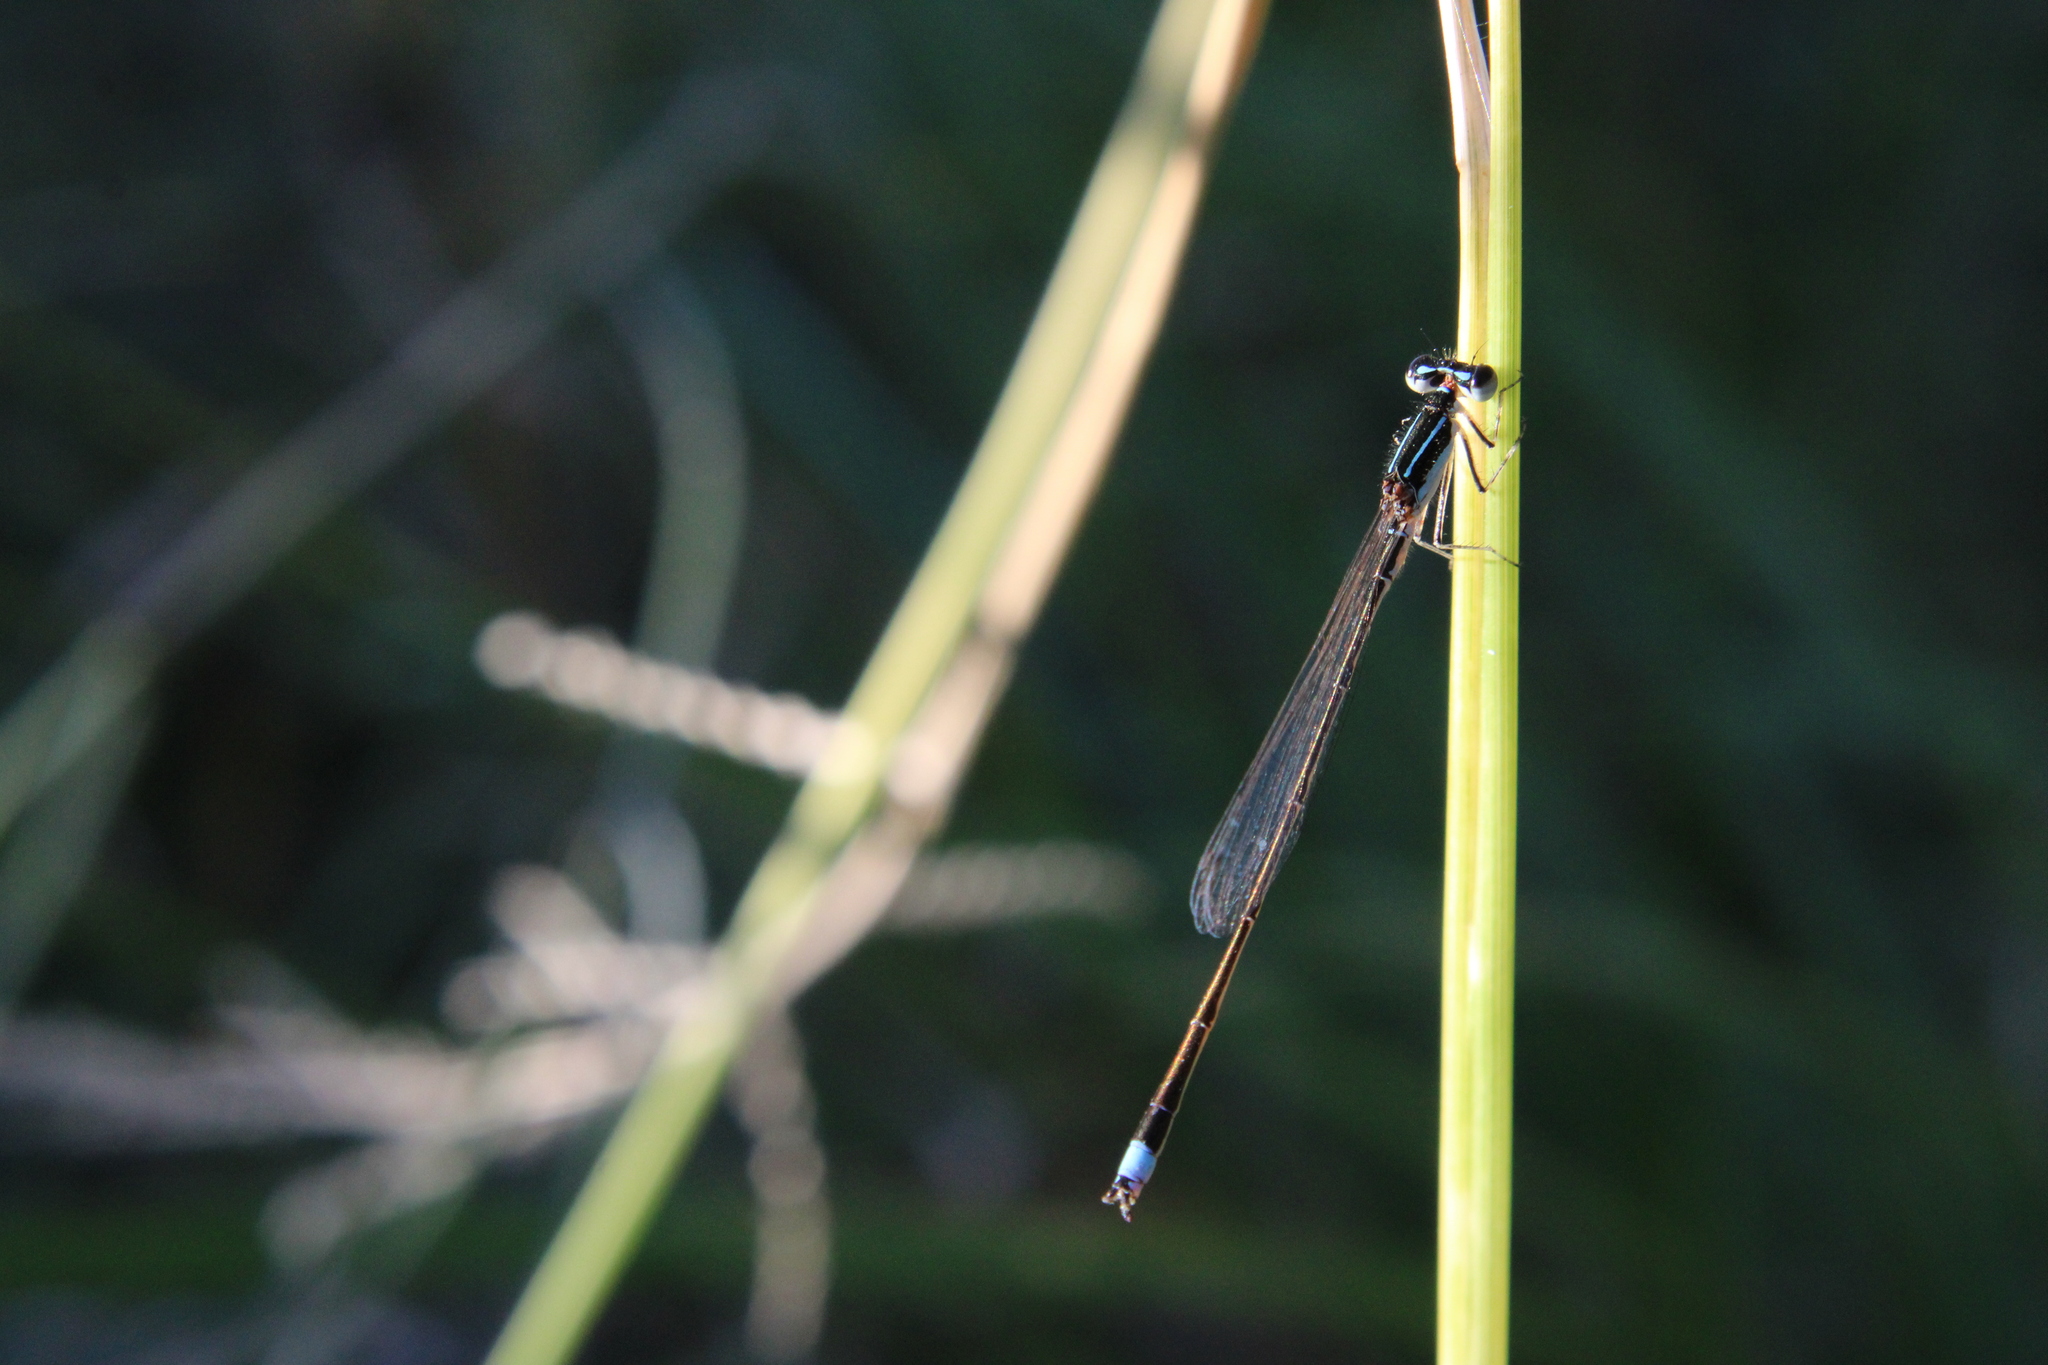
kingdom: Animalia
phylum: Arthropoda
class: Insecta
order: Odonata
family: Coenagrionidae
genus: Argentagrion
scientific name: Argentagrion ambiguum
